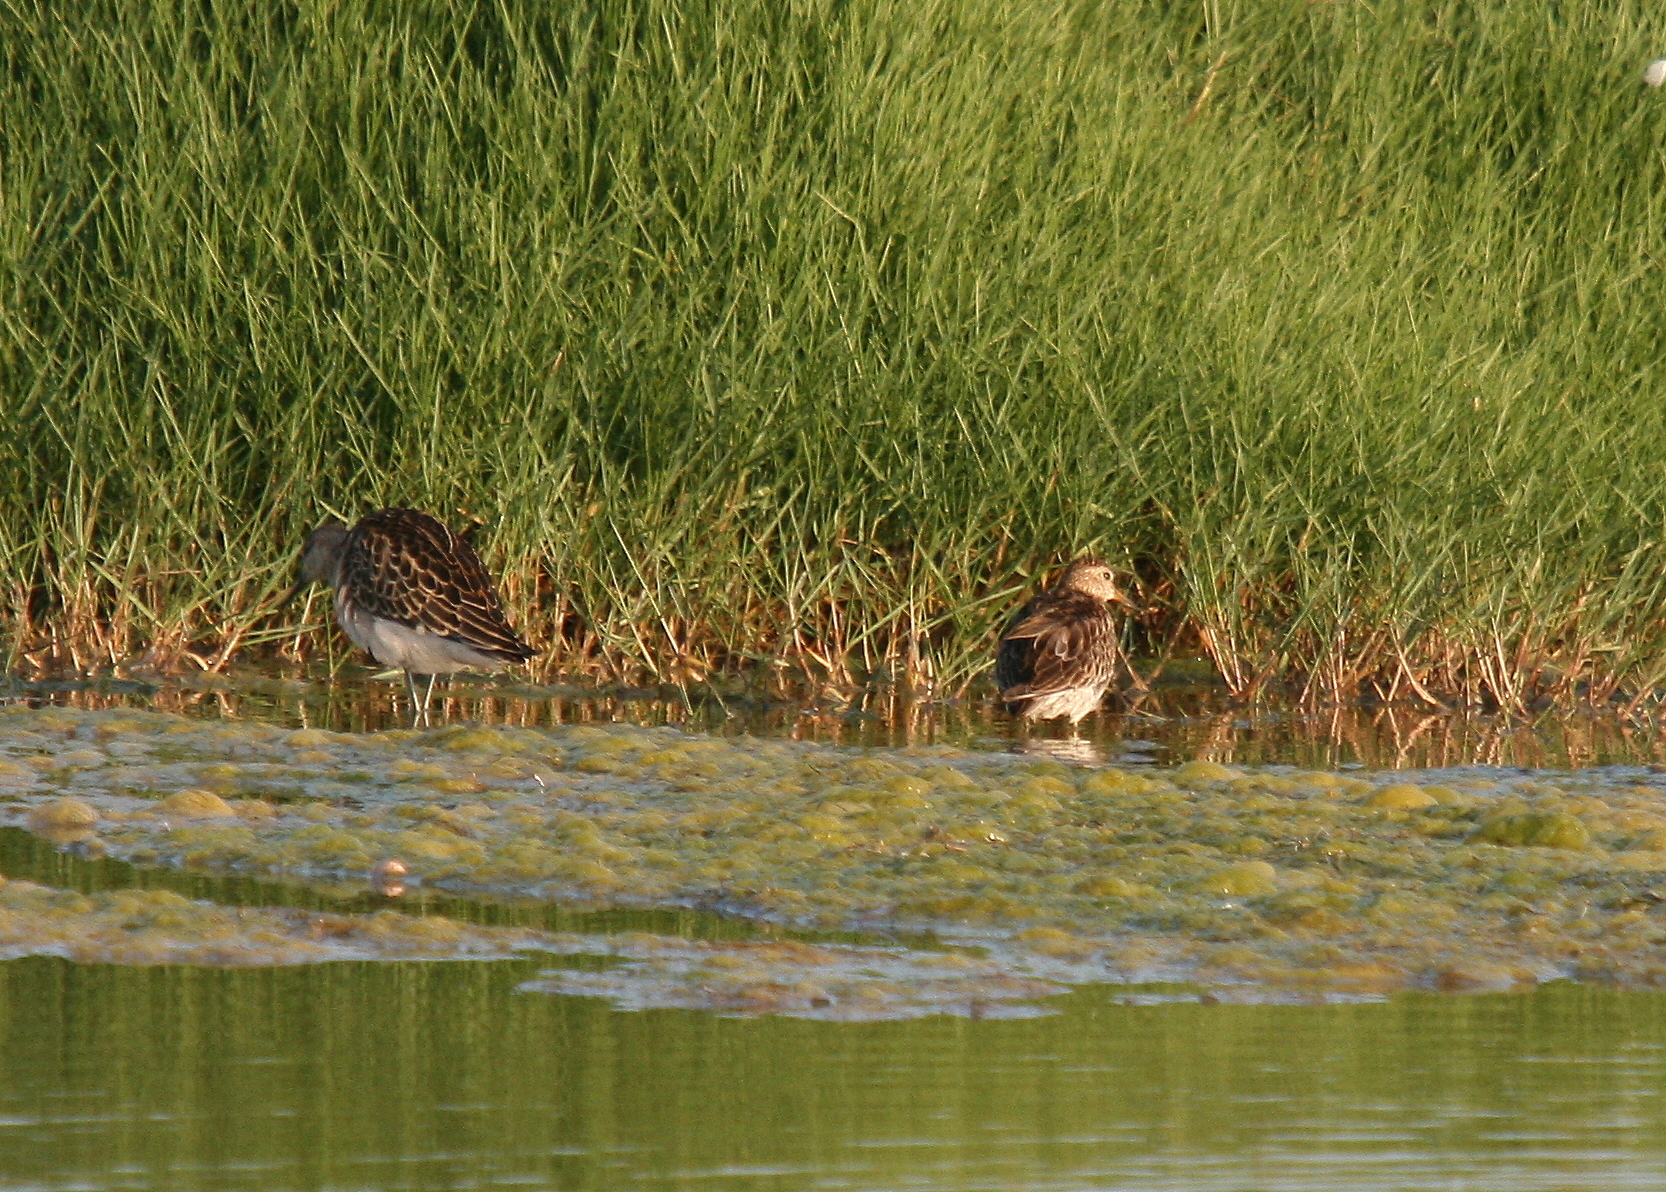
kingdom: Animalia
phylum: Chordata
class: Aves
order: Charadriiformes
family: Scolopacidae
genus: Calidris
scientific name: Calidris melanotos
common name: Pectoral sandpiper
